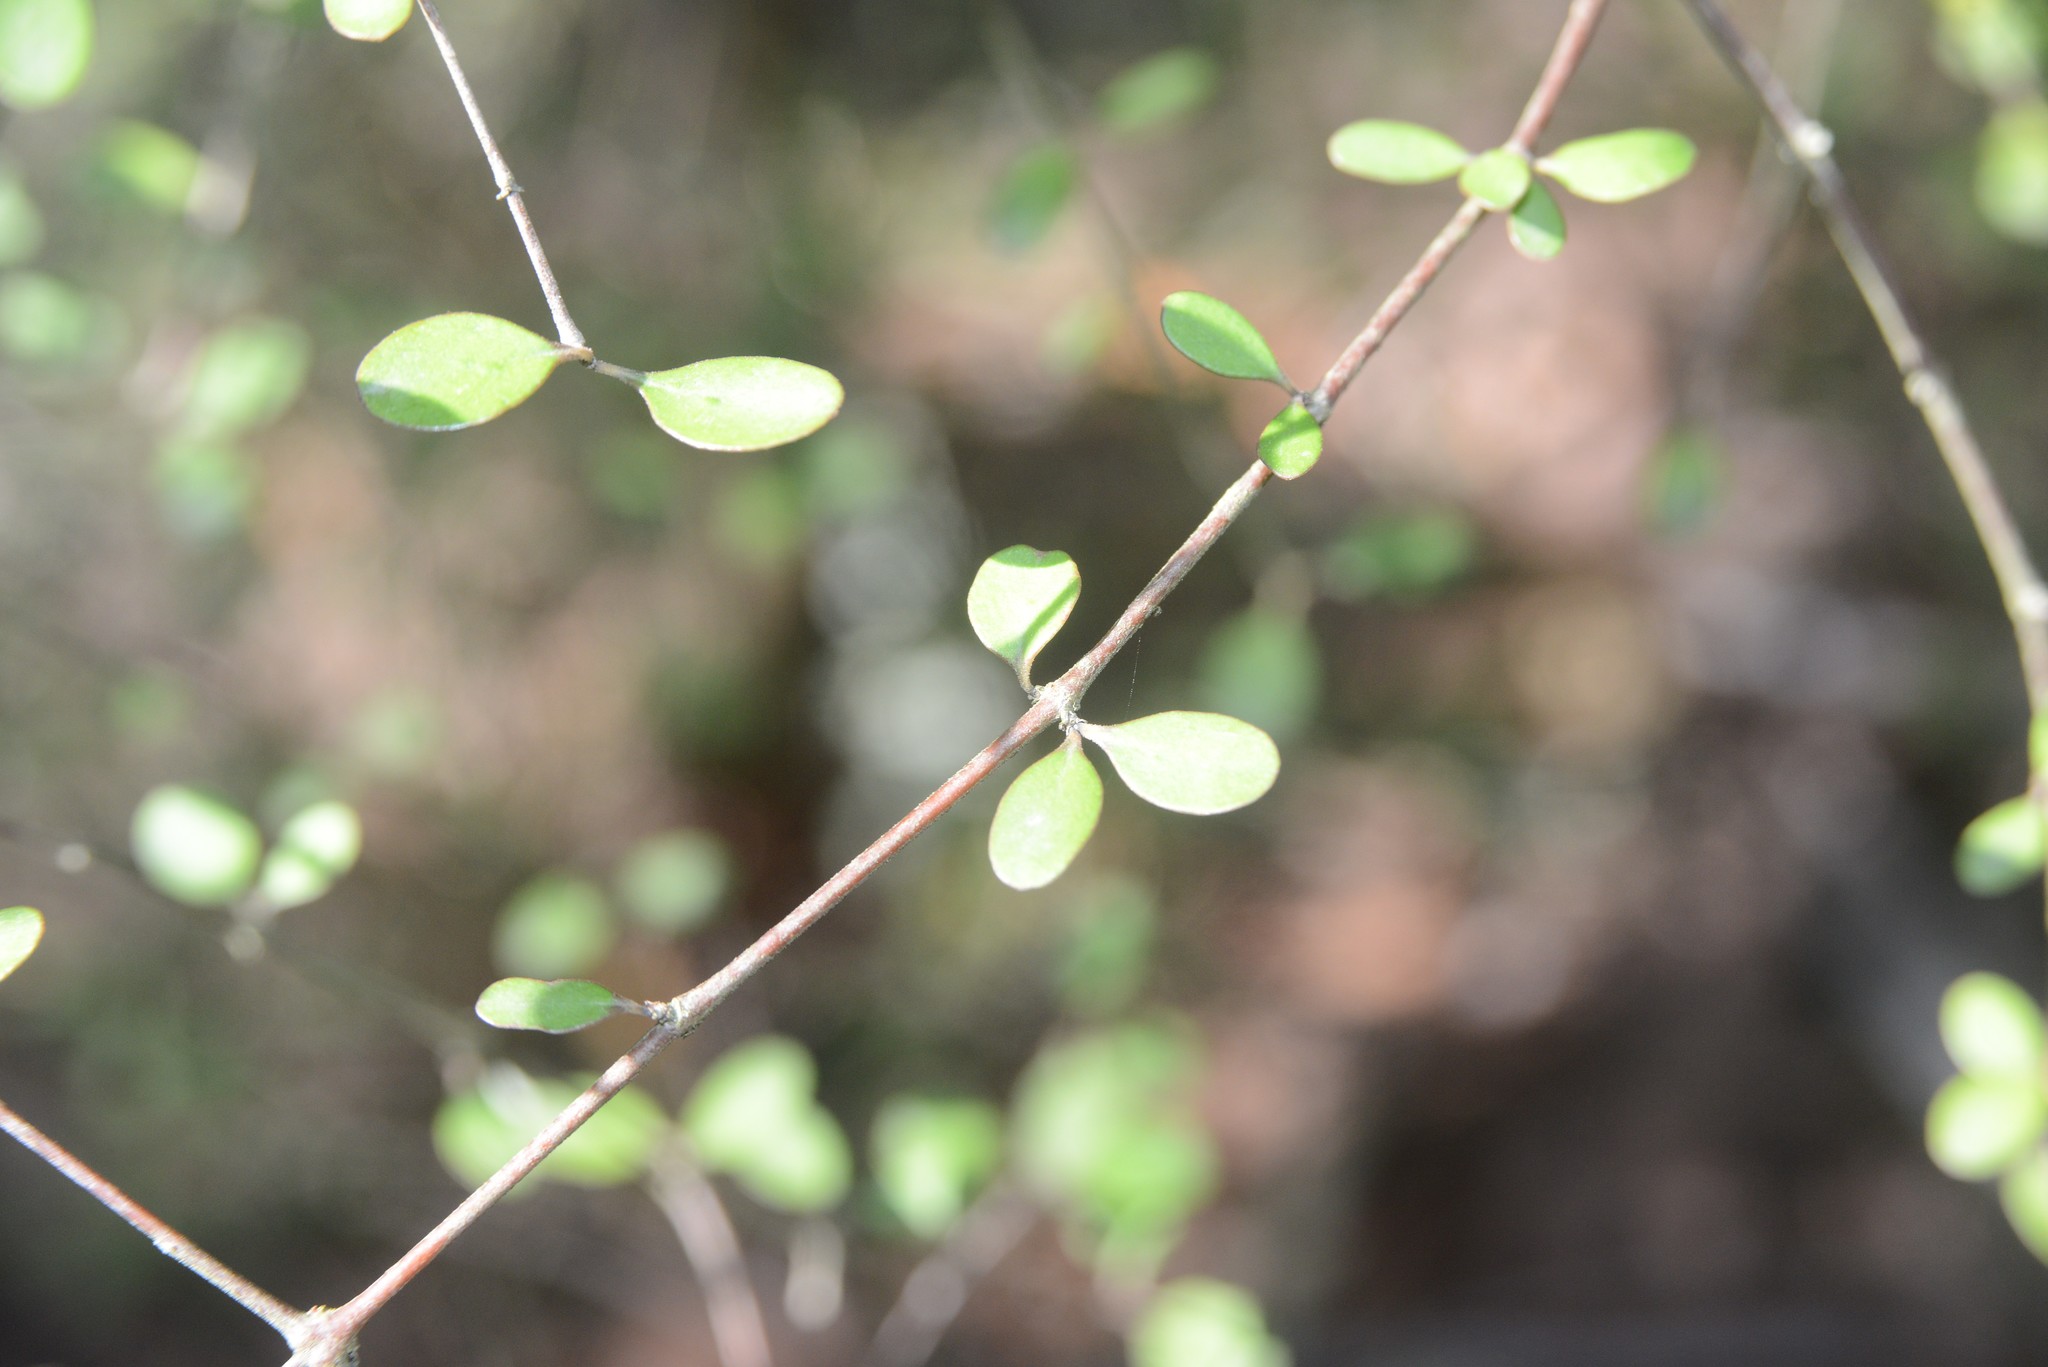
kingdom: Plantae
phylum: Tracheophyta
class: Magnoliopsida
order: Gentianales
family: Rubiaceae
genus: Coprosma
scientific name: Coprosma crassifolia
